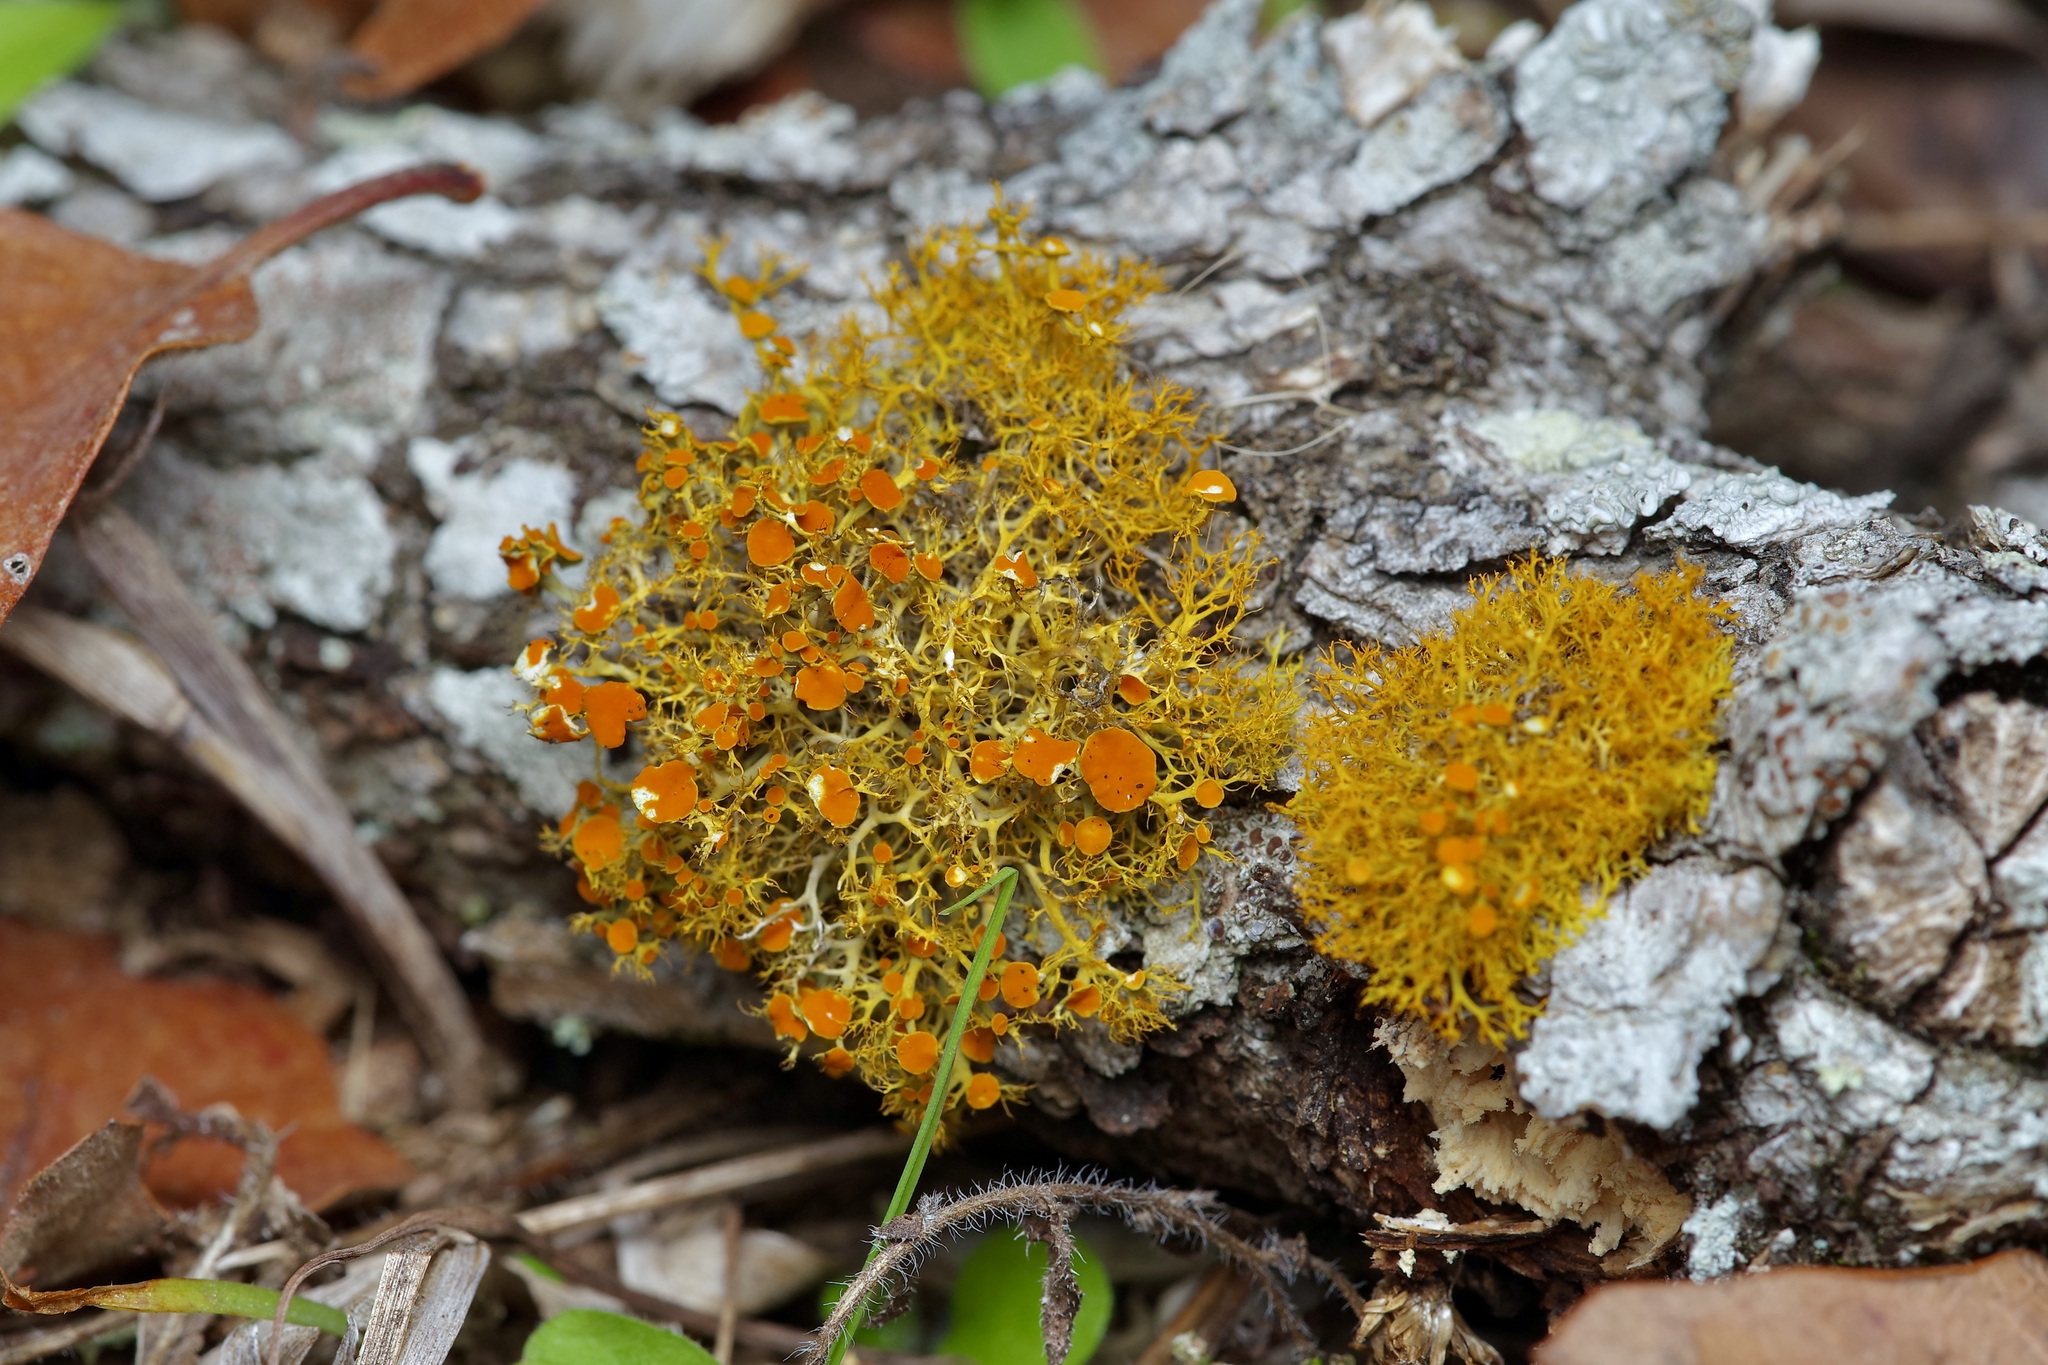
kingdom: Fungi
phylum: Ascomycota
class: Lecanoromycetes
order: Teloschistales
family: Teloschistaceae
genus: Teloschistes
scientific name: Teloschistes exilis
